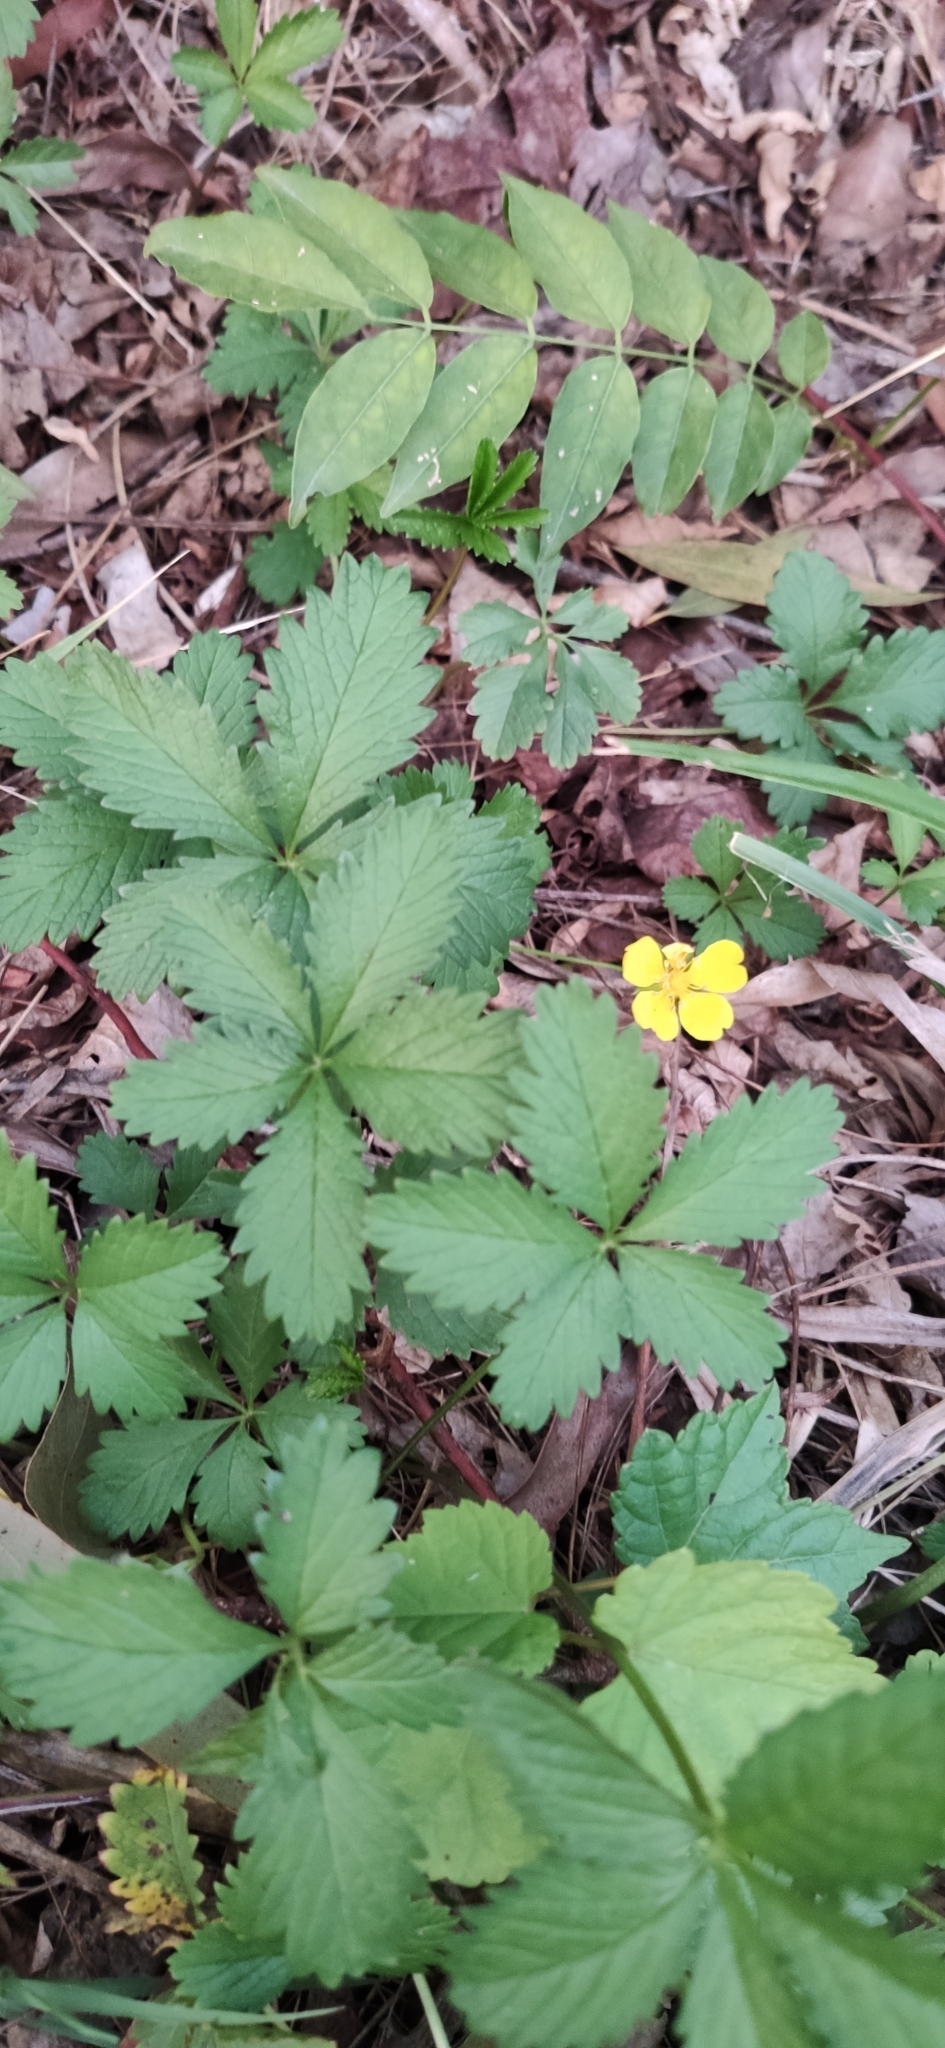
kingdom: Plantae
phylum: Tracheophyta
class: Magnoliopsida
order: Rosales
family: Rosaceae
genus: Potentilla
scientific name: Potentilla reptans
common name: Creeping cinquefoil
